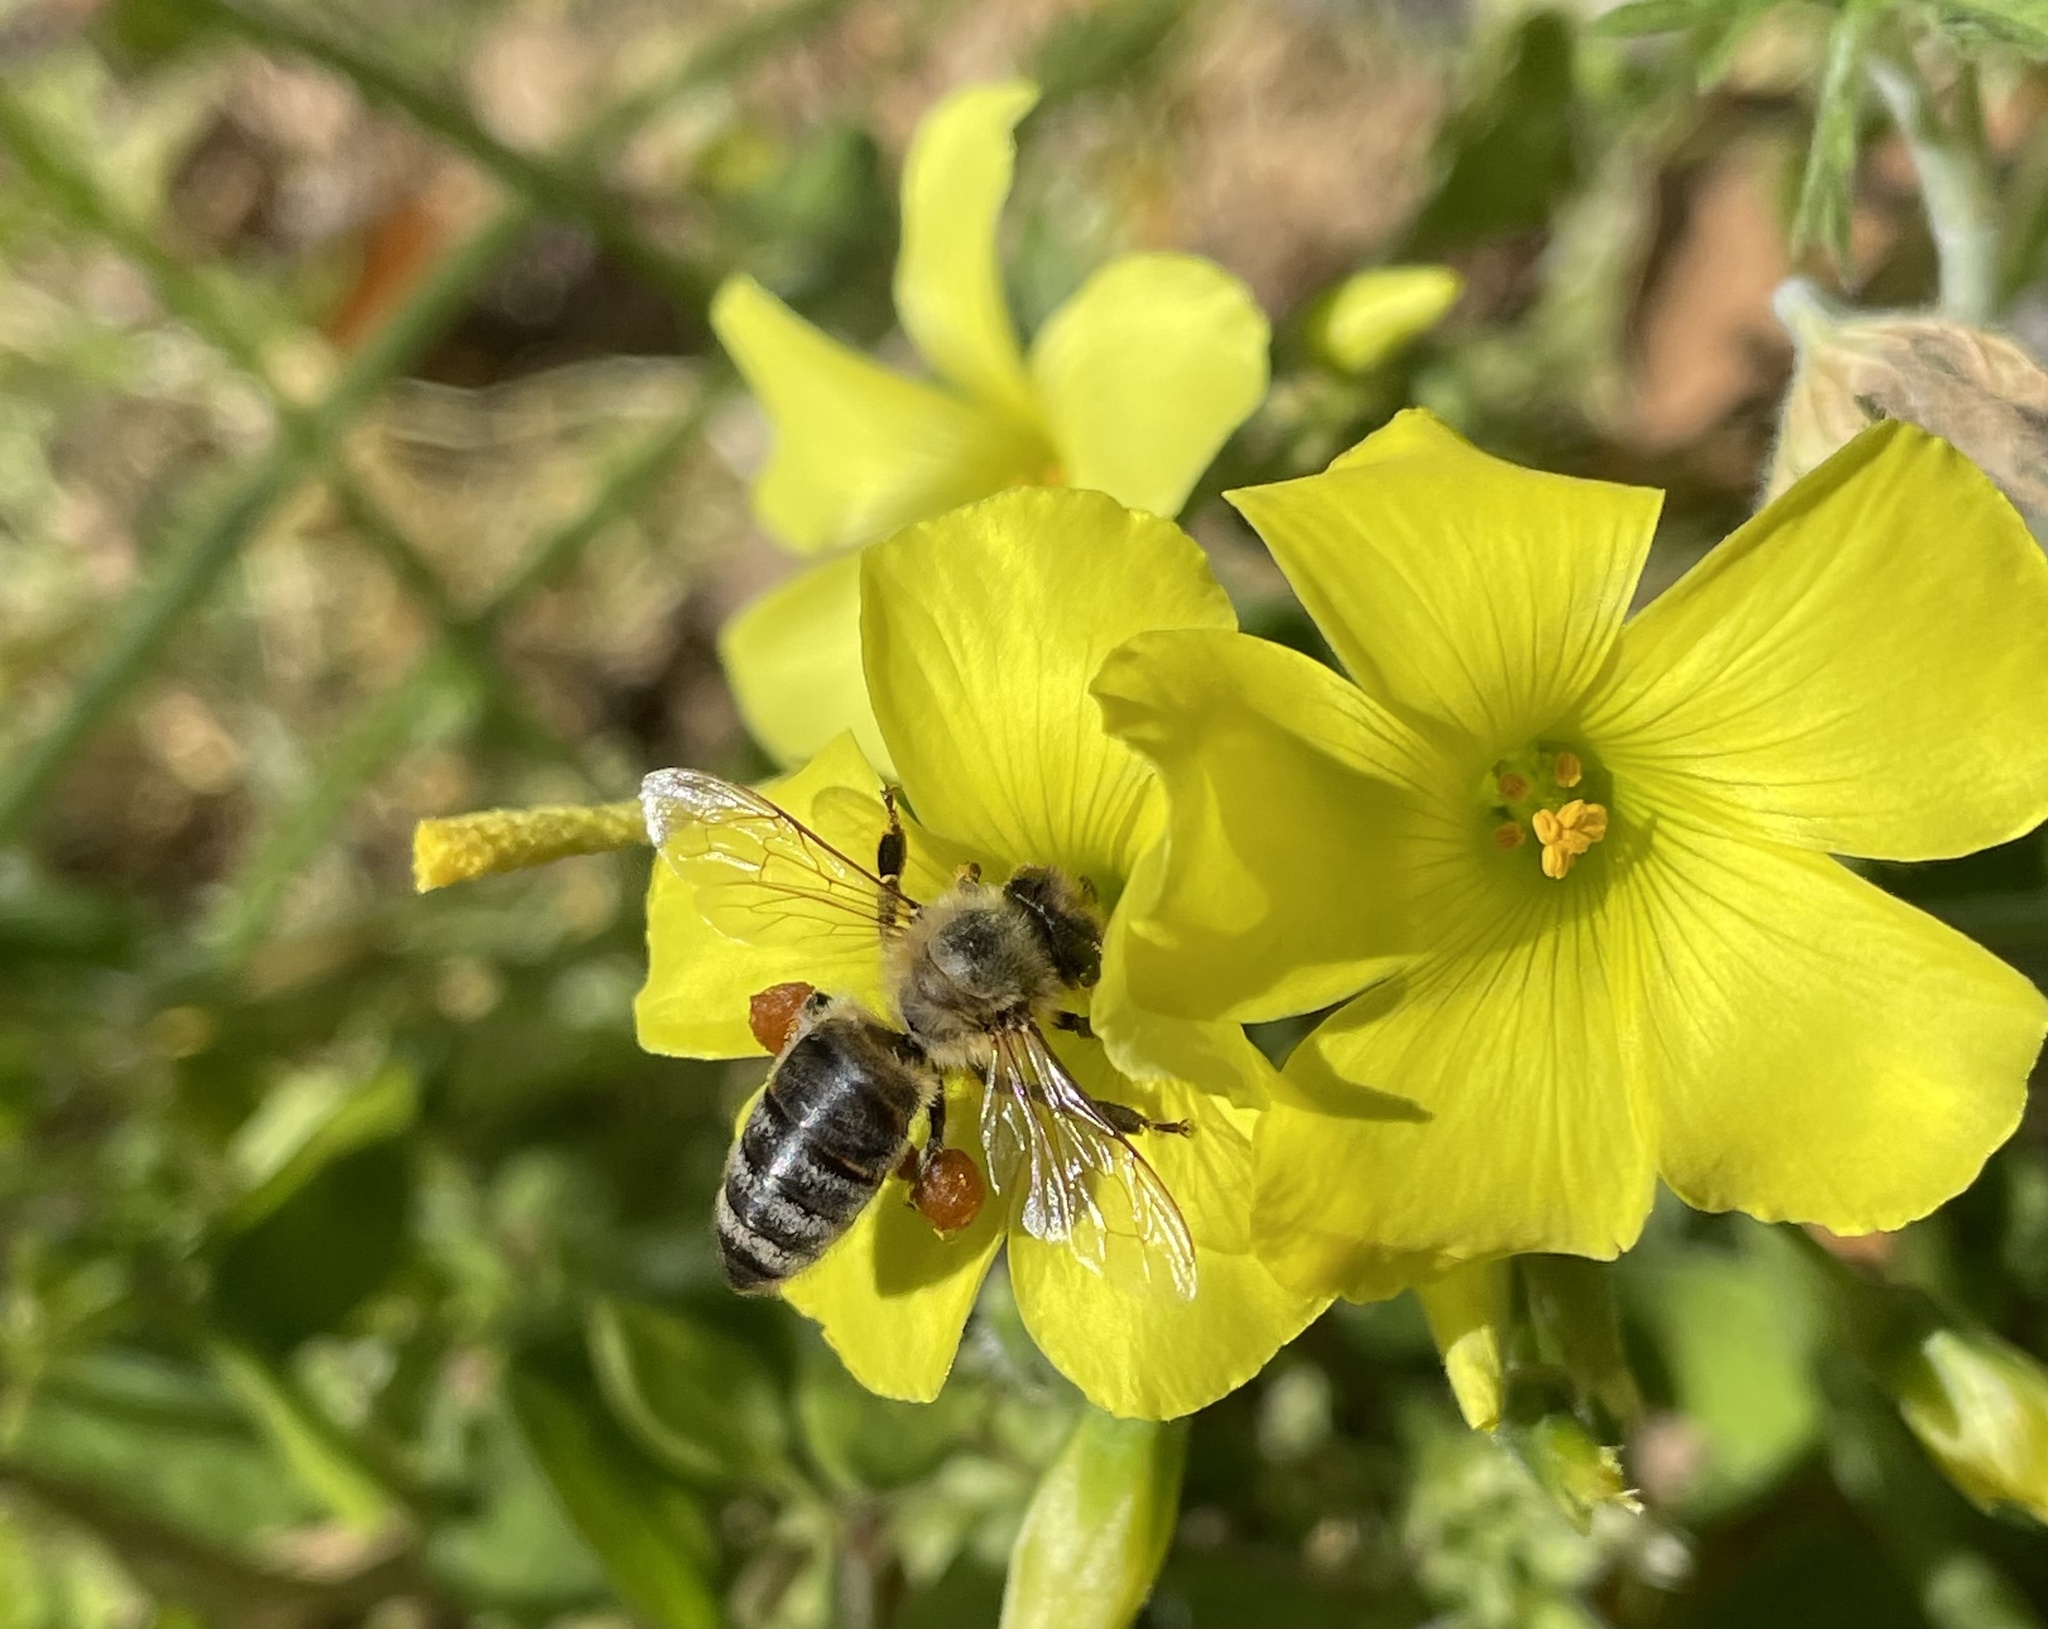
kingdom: Animalia
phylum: Arthropoda
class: Insecta
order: Hymenoptera
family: Apidae
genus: Apis
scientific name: Apis mellifera
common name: Honey bee
